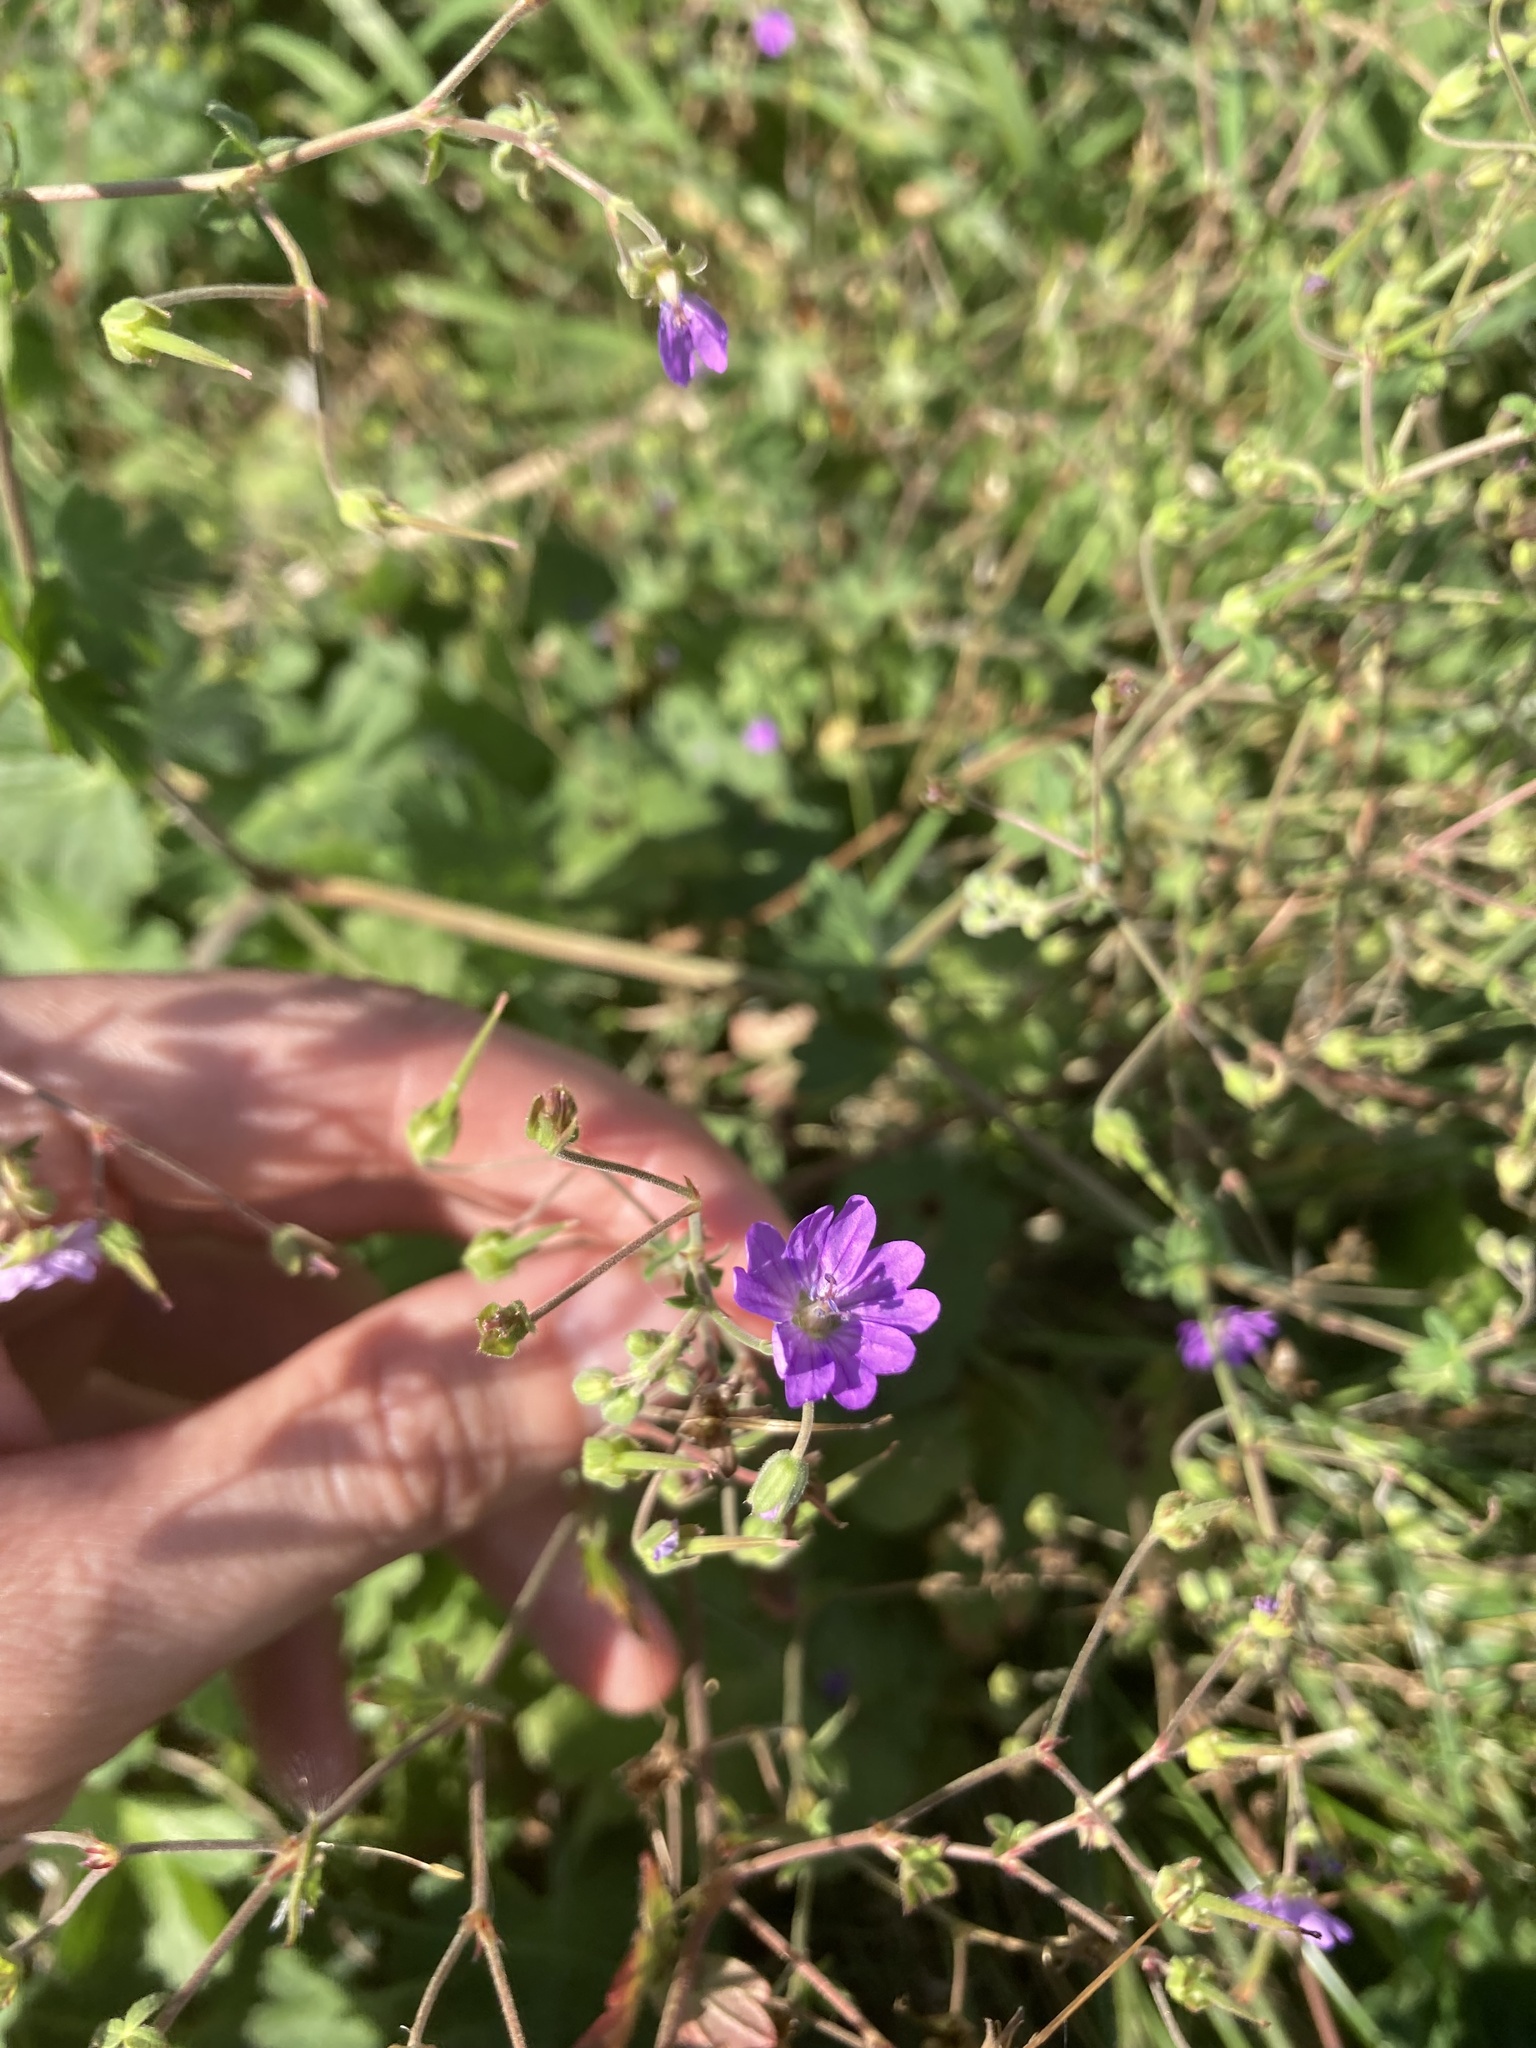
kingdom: Plantae
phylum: Tracheophyta
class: Magnoliopsida
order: Geraniales
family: Geraniaceae
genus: Geranium
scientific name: Geranium pyrenaicum
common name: Hedgerow crane's-bill
